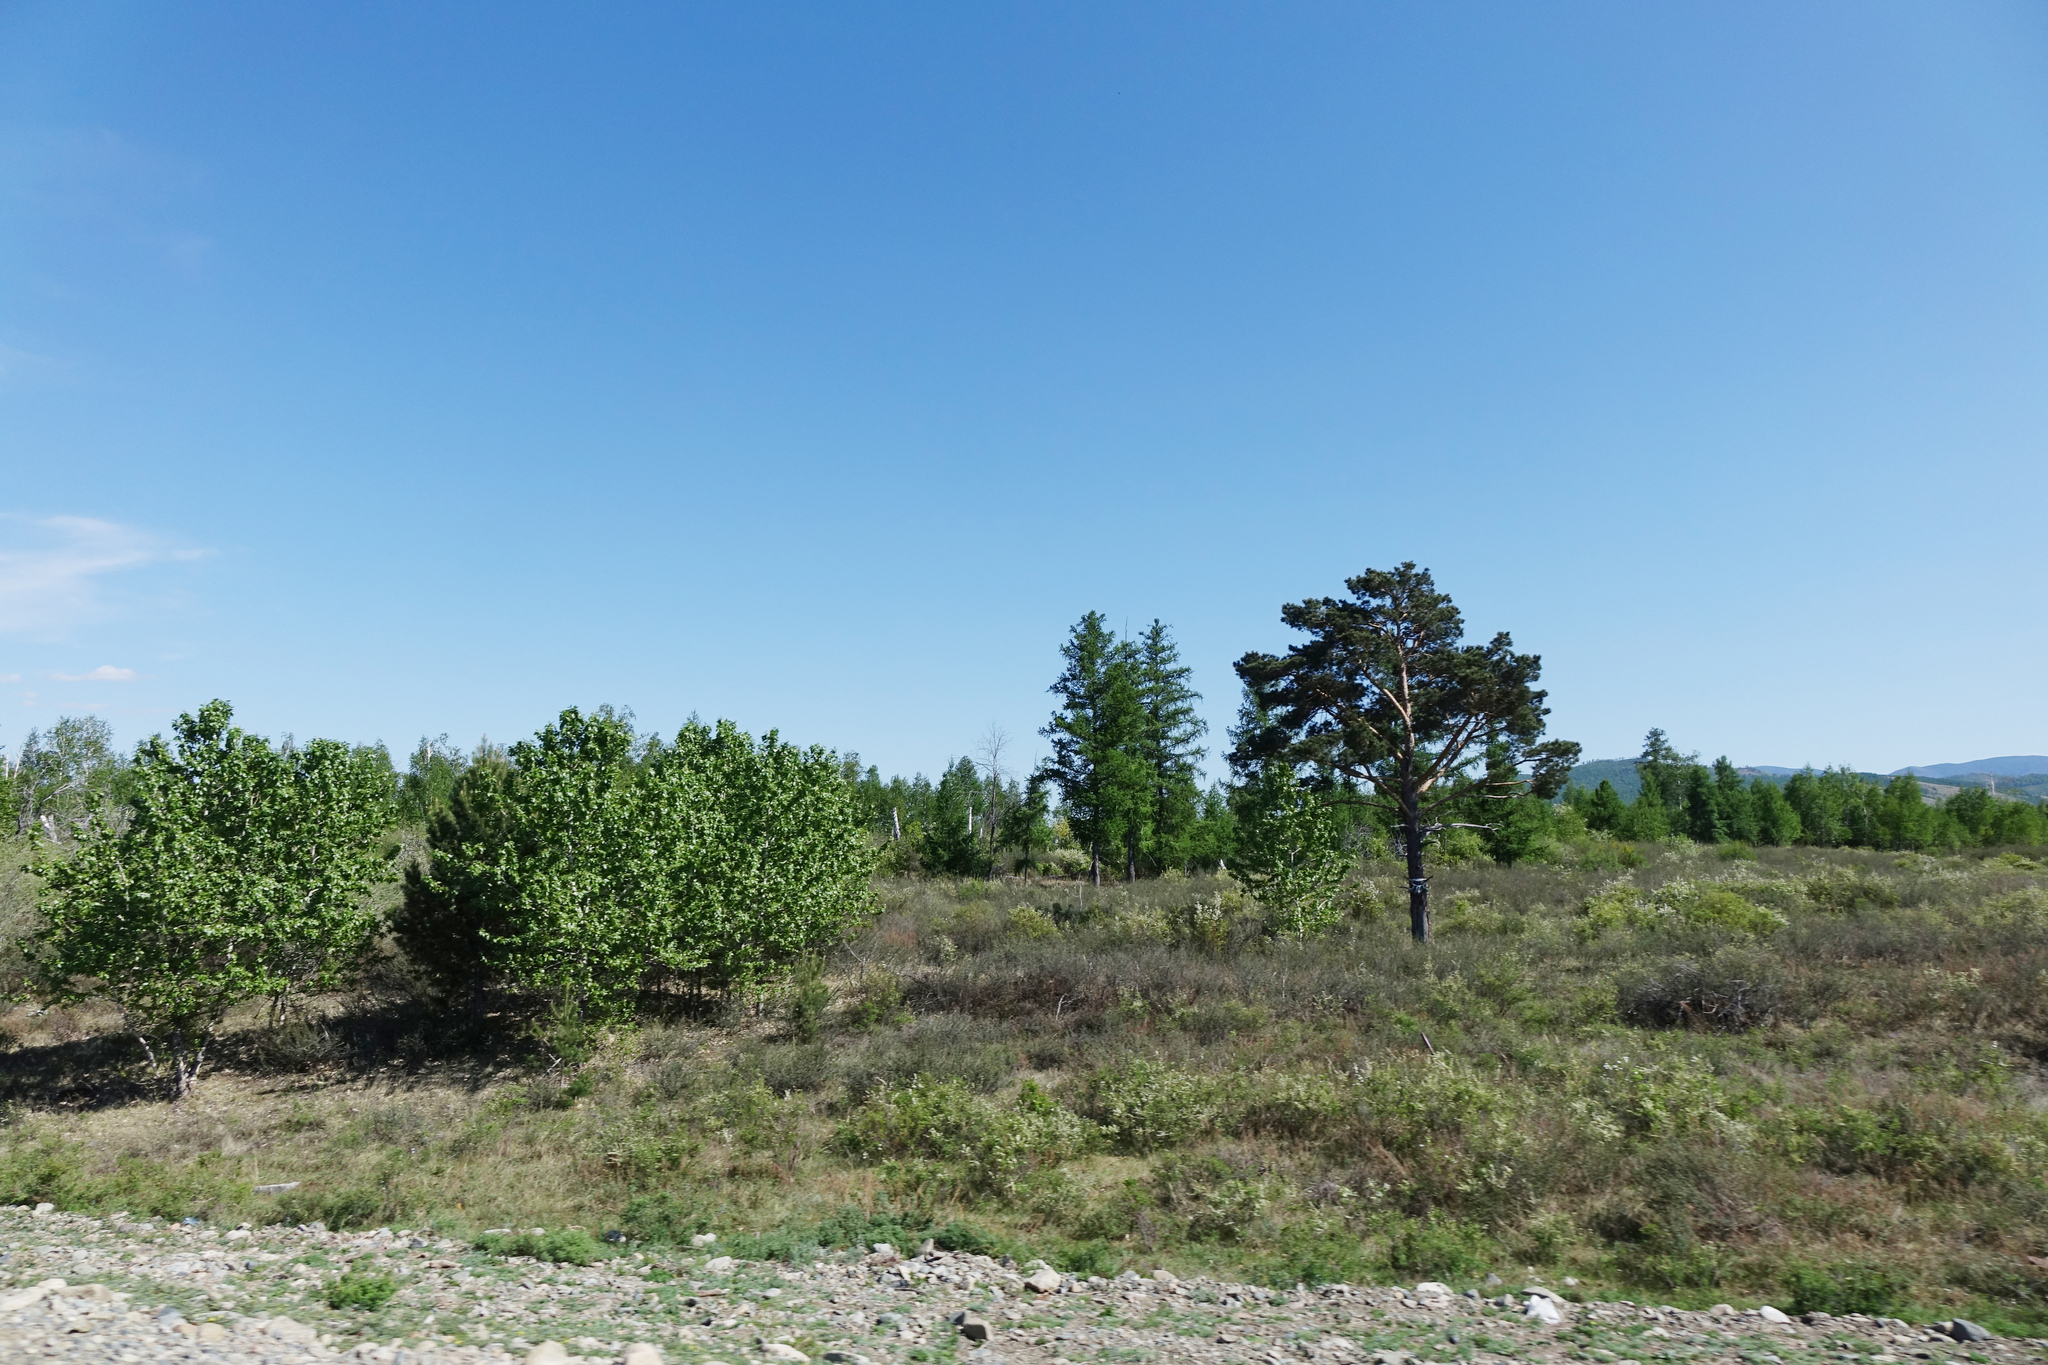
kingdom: Plantae
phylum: Tracheophyta
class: Pinopsida
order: Pinales
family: Pinaceae
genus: Pinus
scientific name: Pinus sylvestris
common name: Scots pine
